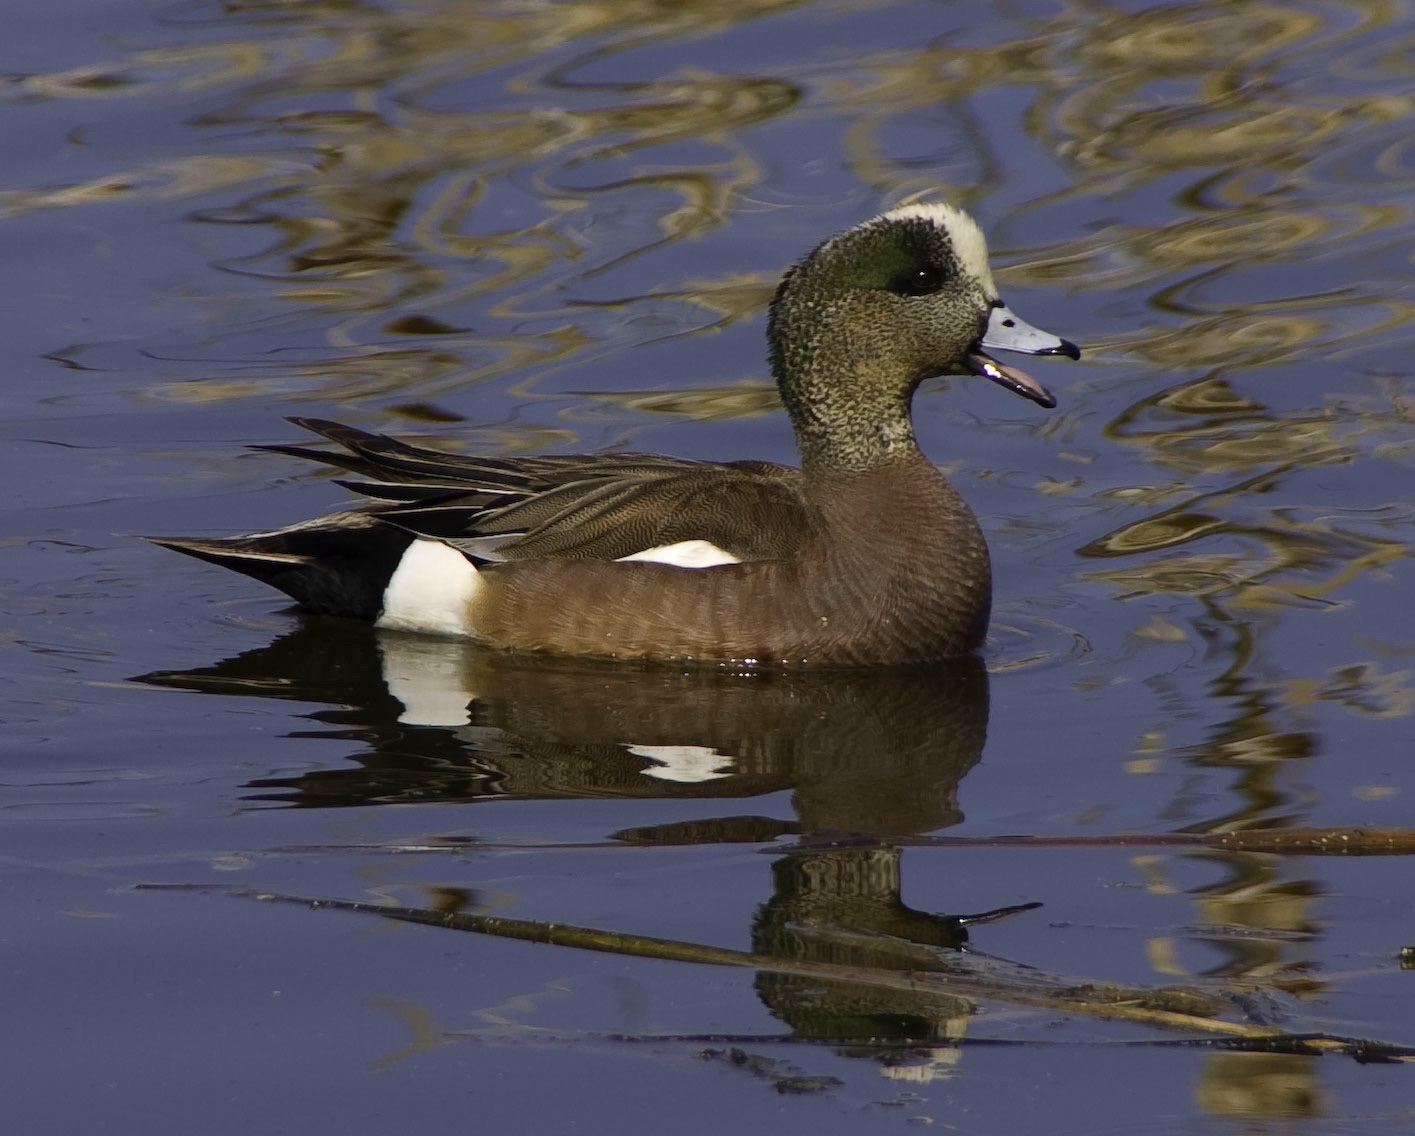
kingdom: Animalia
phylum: Chordata
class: Aves
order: Anseriformes
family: Anatidae
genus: Mareca
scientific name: Mareca americana
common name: American wigeon
